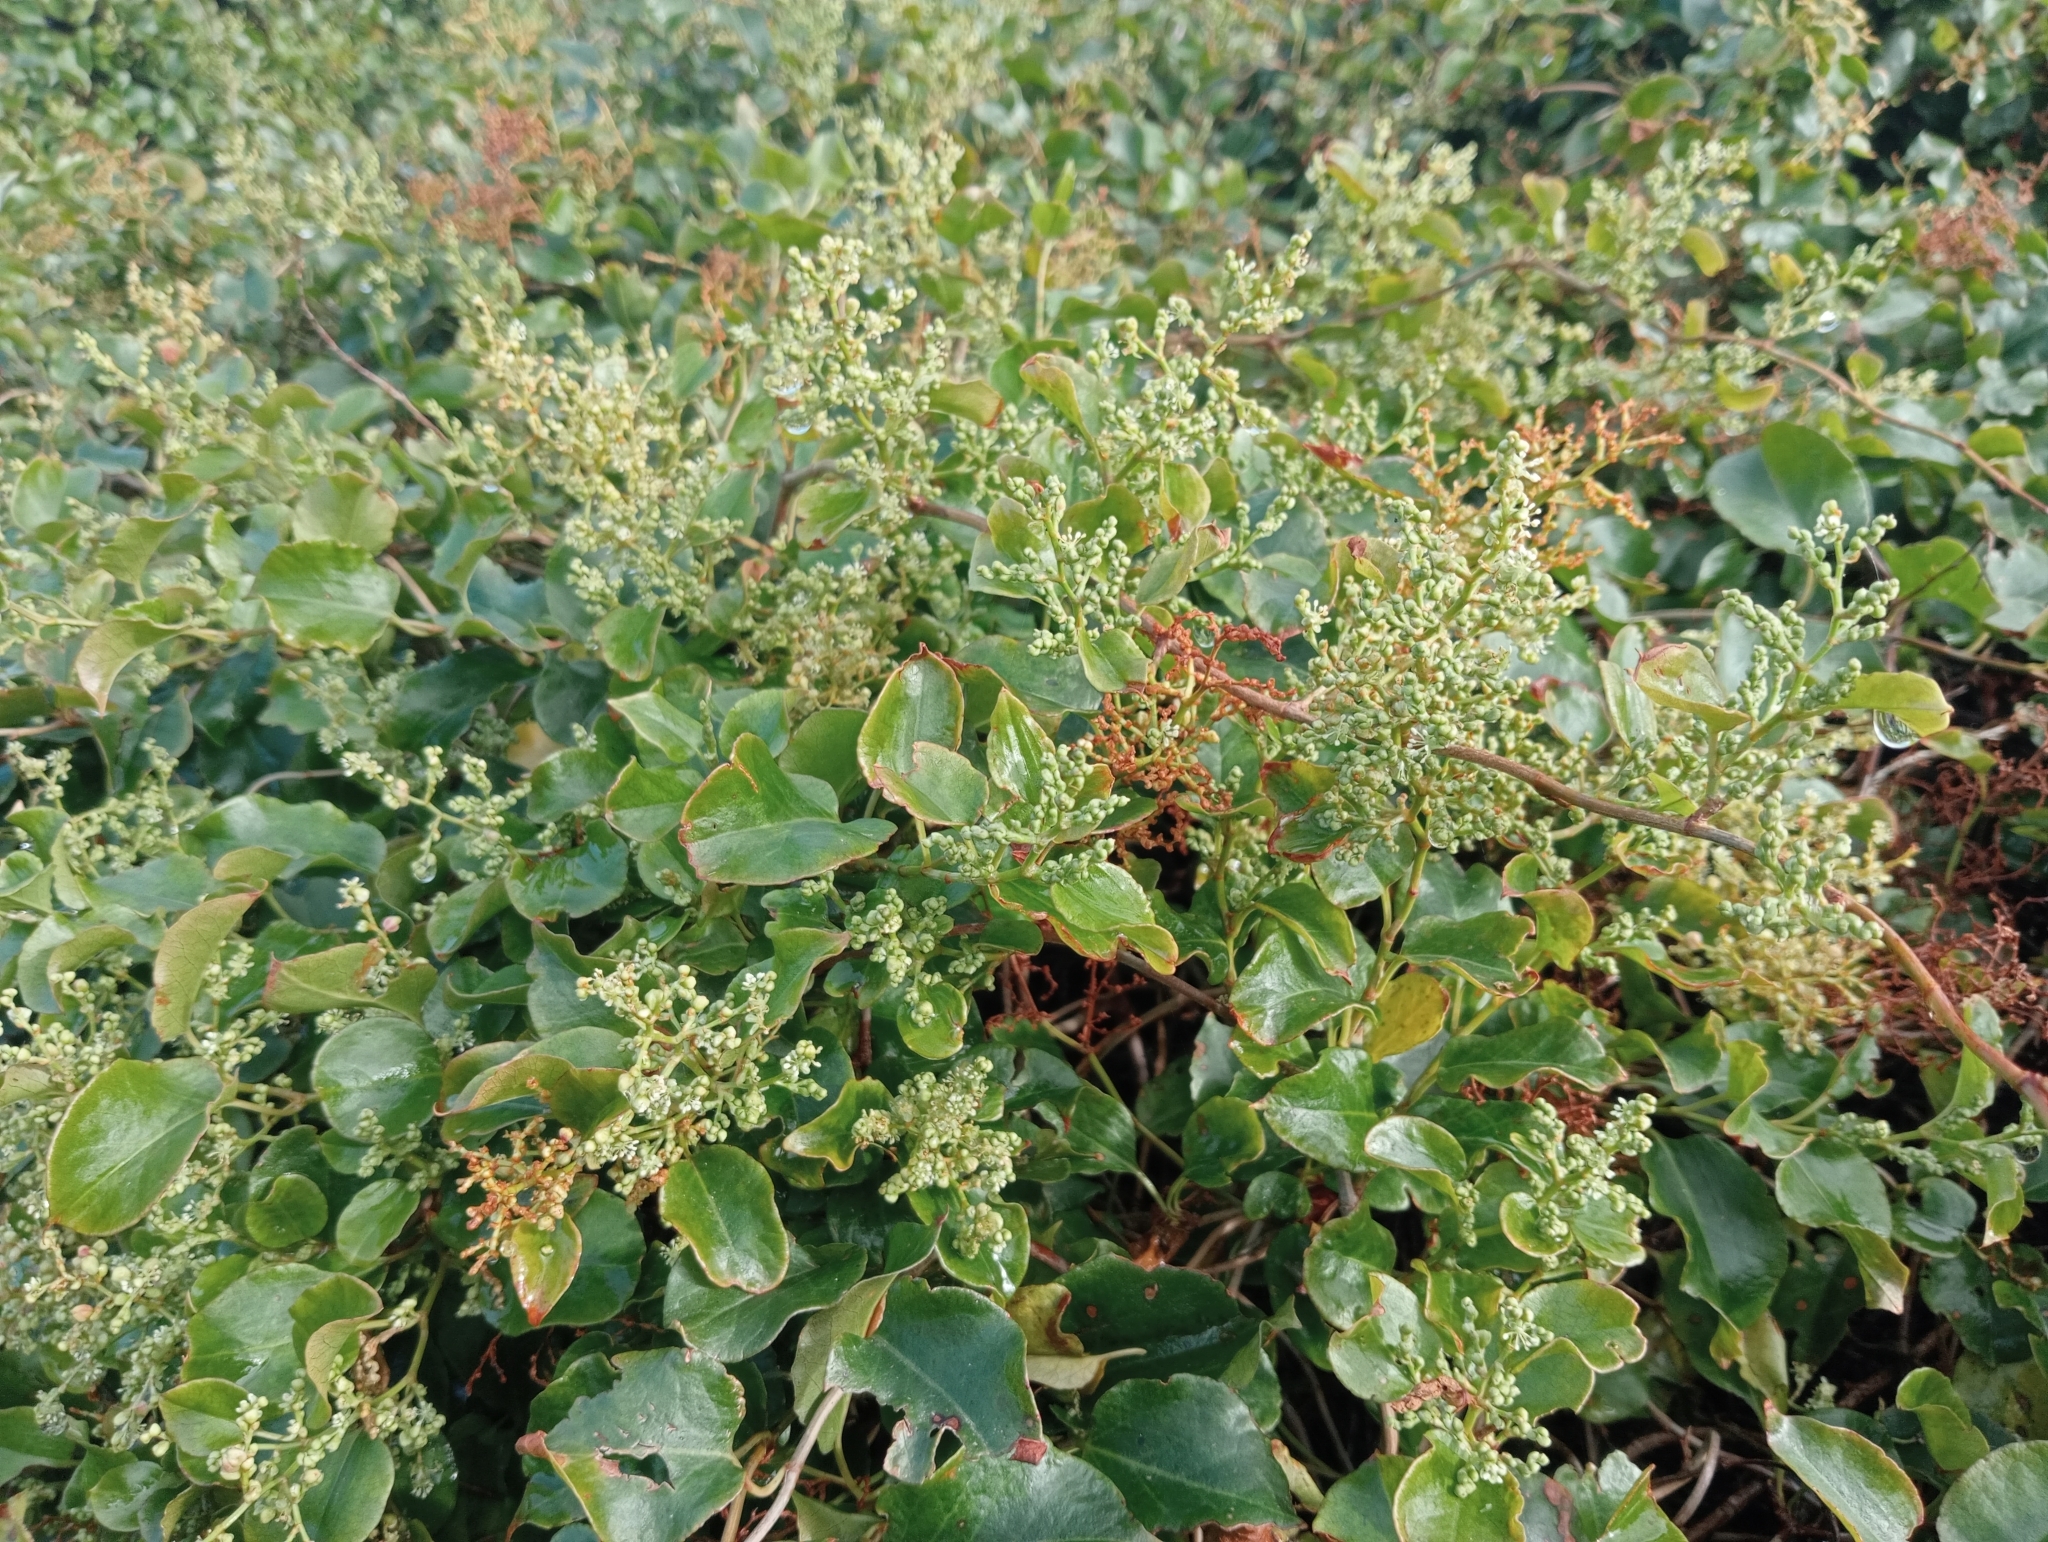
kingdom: Plantae
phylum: Tracheophyta
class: Magnoliopsida
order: Caryophyllales
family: Polygonaceae
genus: Muehlenbeckia
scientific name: Muehlenbeckia australis
